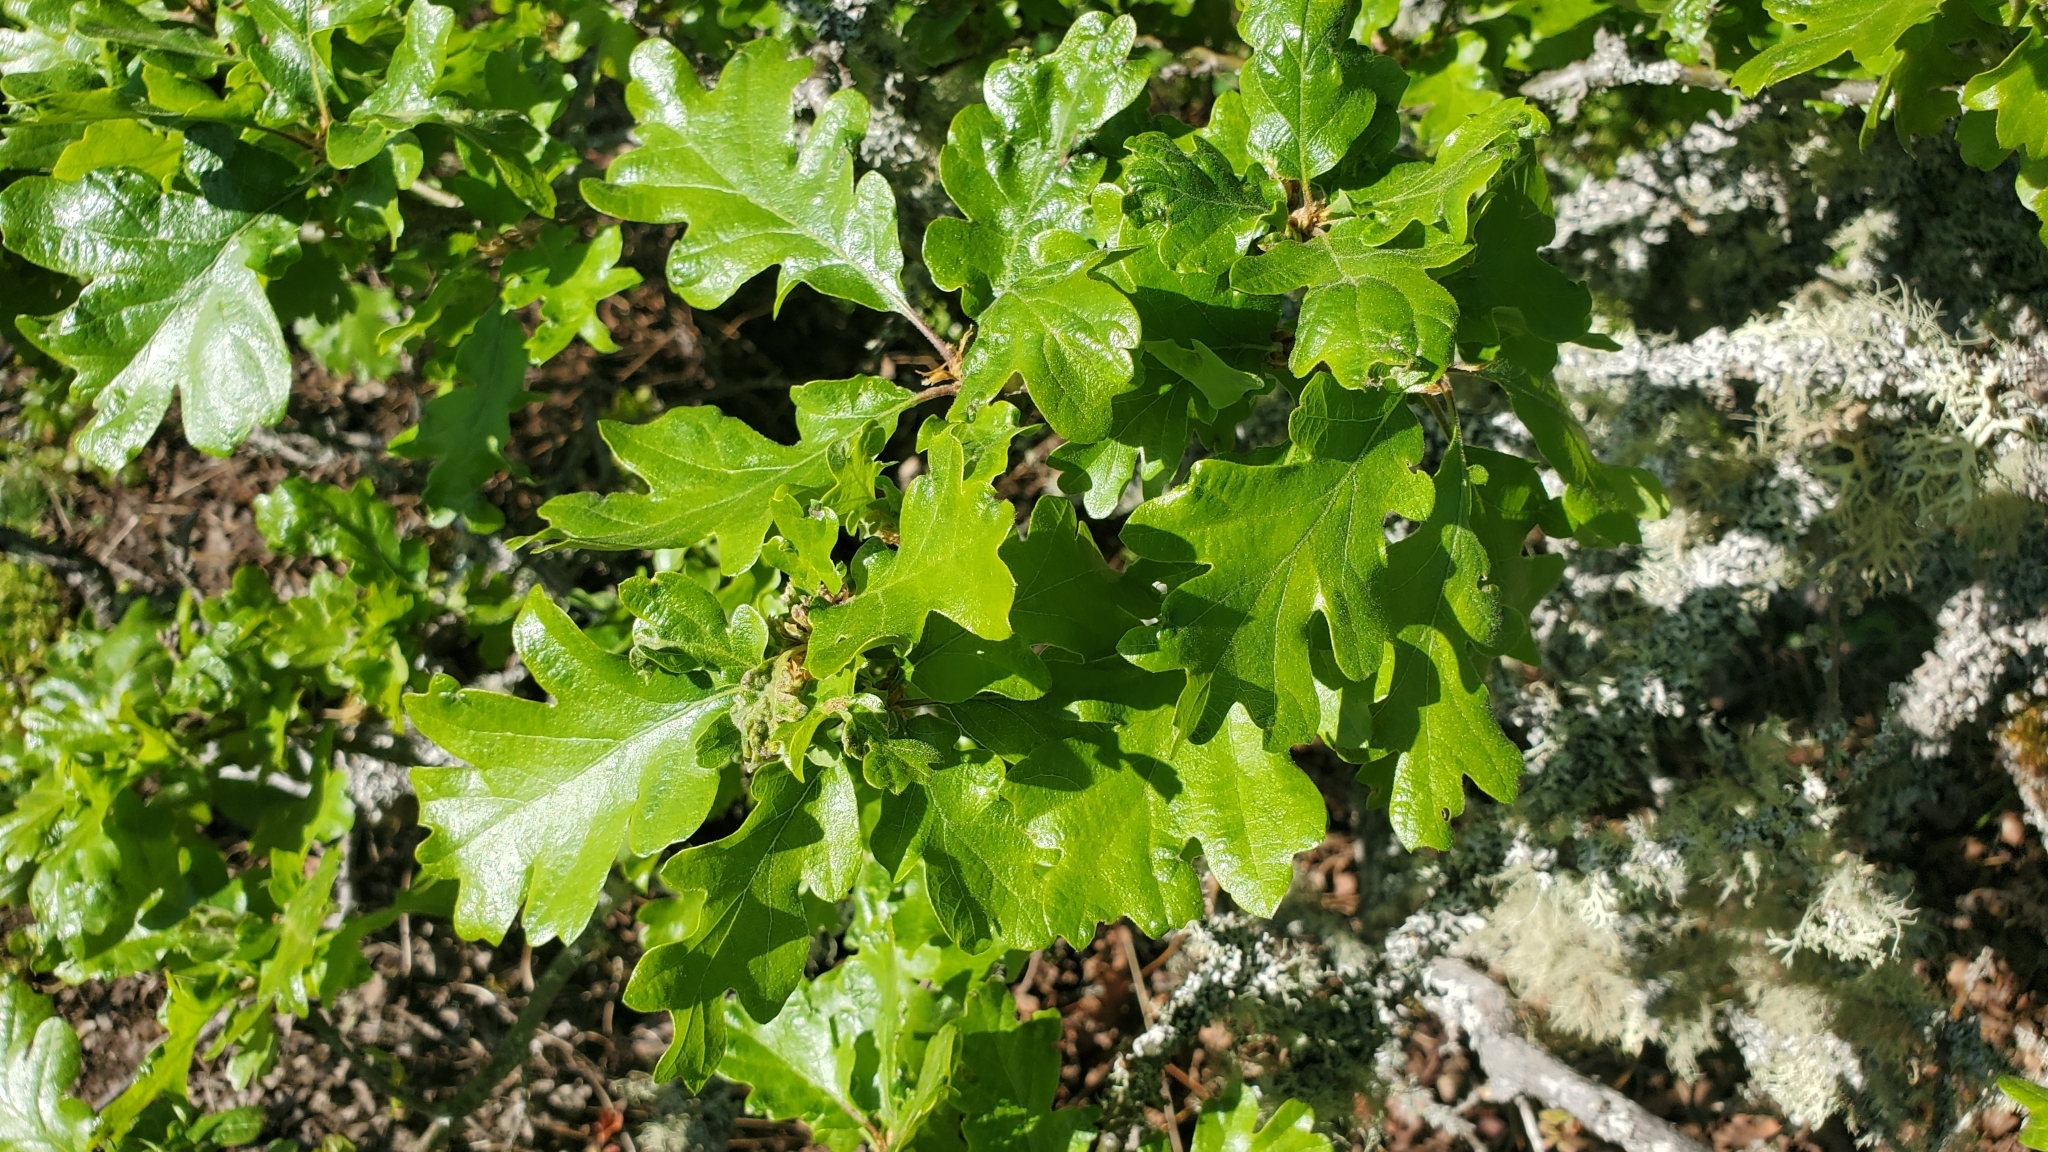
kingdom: Plantae
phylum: Tracheophyta
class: Magnoliopsida
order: Fagales
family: Fagaceae
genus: Quercus
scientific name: Quercus garryana
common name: Garry oak
